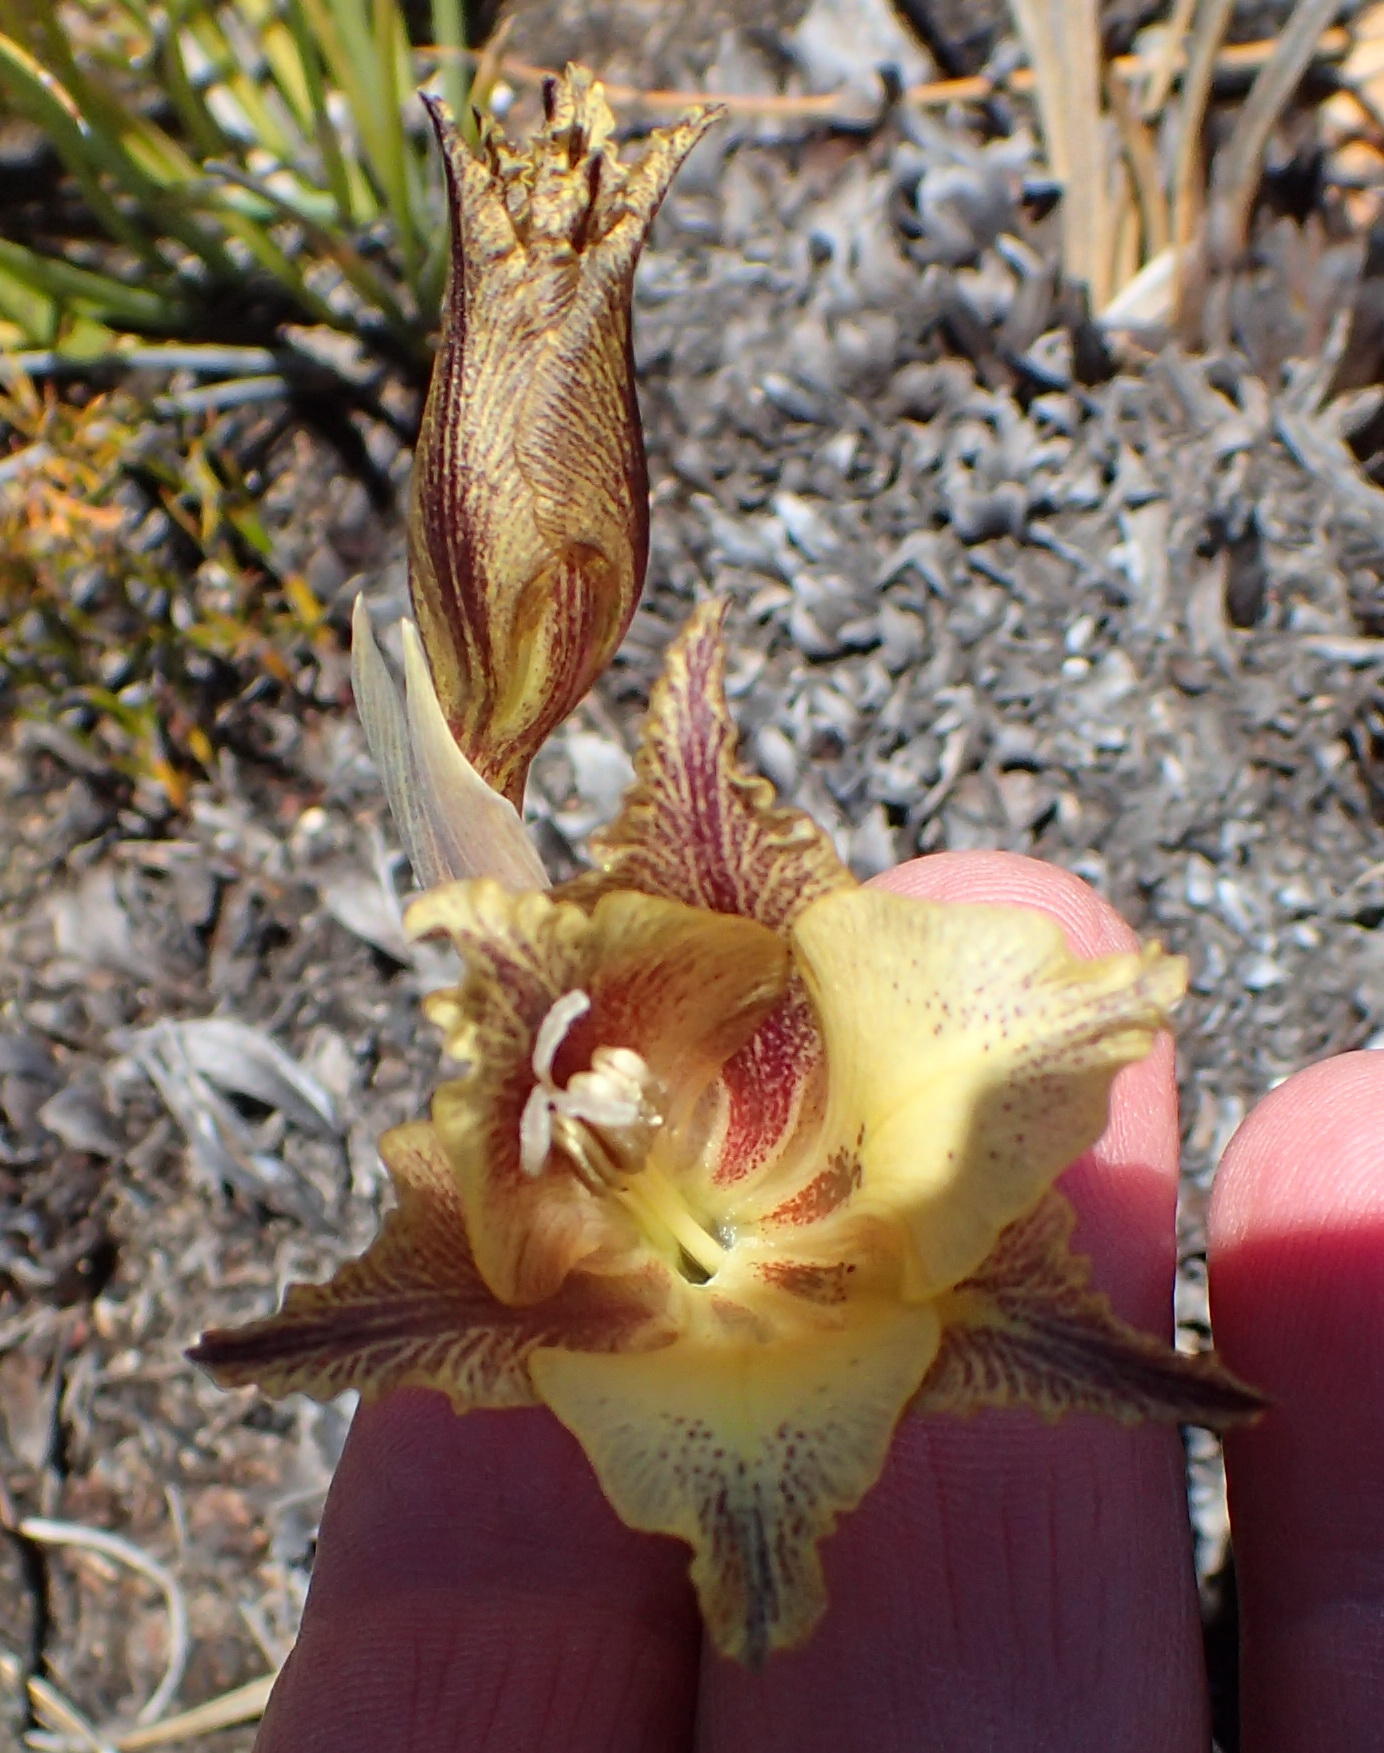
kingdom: Plantae
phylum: Tracheophyta
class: Liliopsida
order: Asparagales
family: Iridaceae
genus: Gladiolus
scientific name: Gladiolus maculatus
